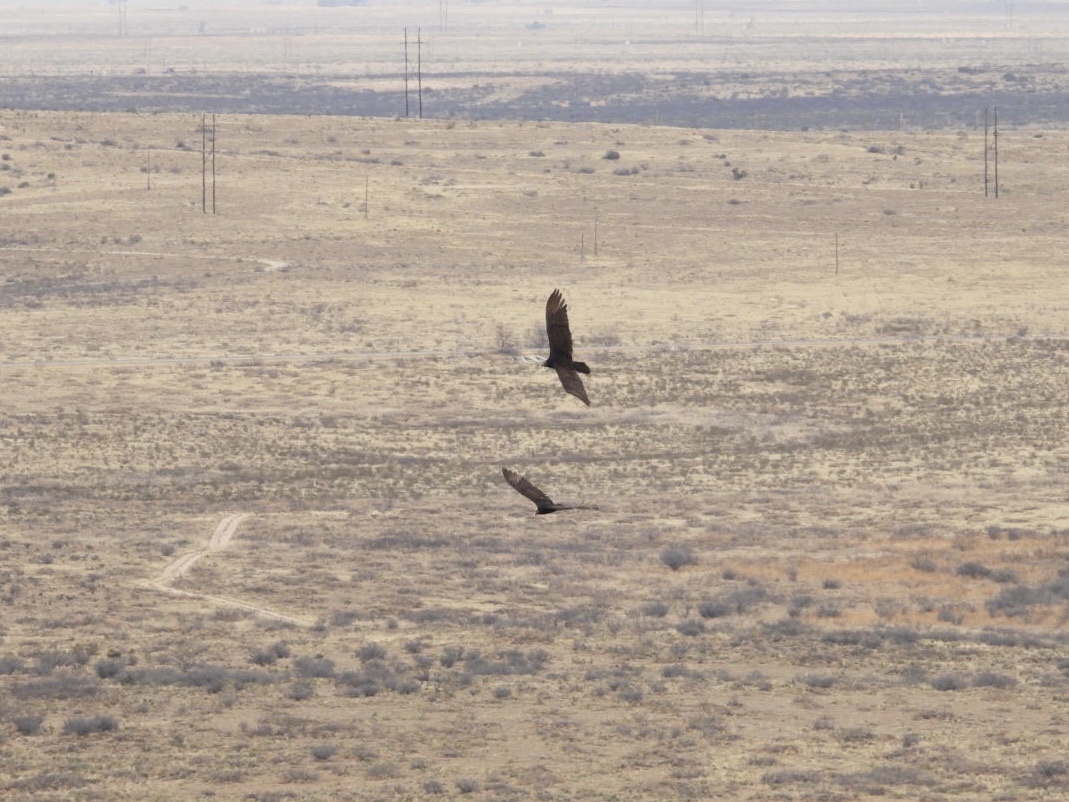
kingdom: Animalia
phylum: Chordata
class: Aves
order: Accipitriformes
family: Cathartidae
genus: Cathartes
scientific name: Cathartes aura
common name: Turkey vulture
